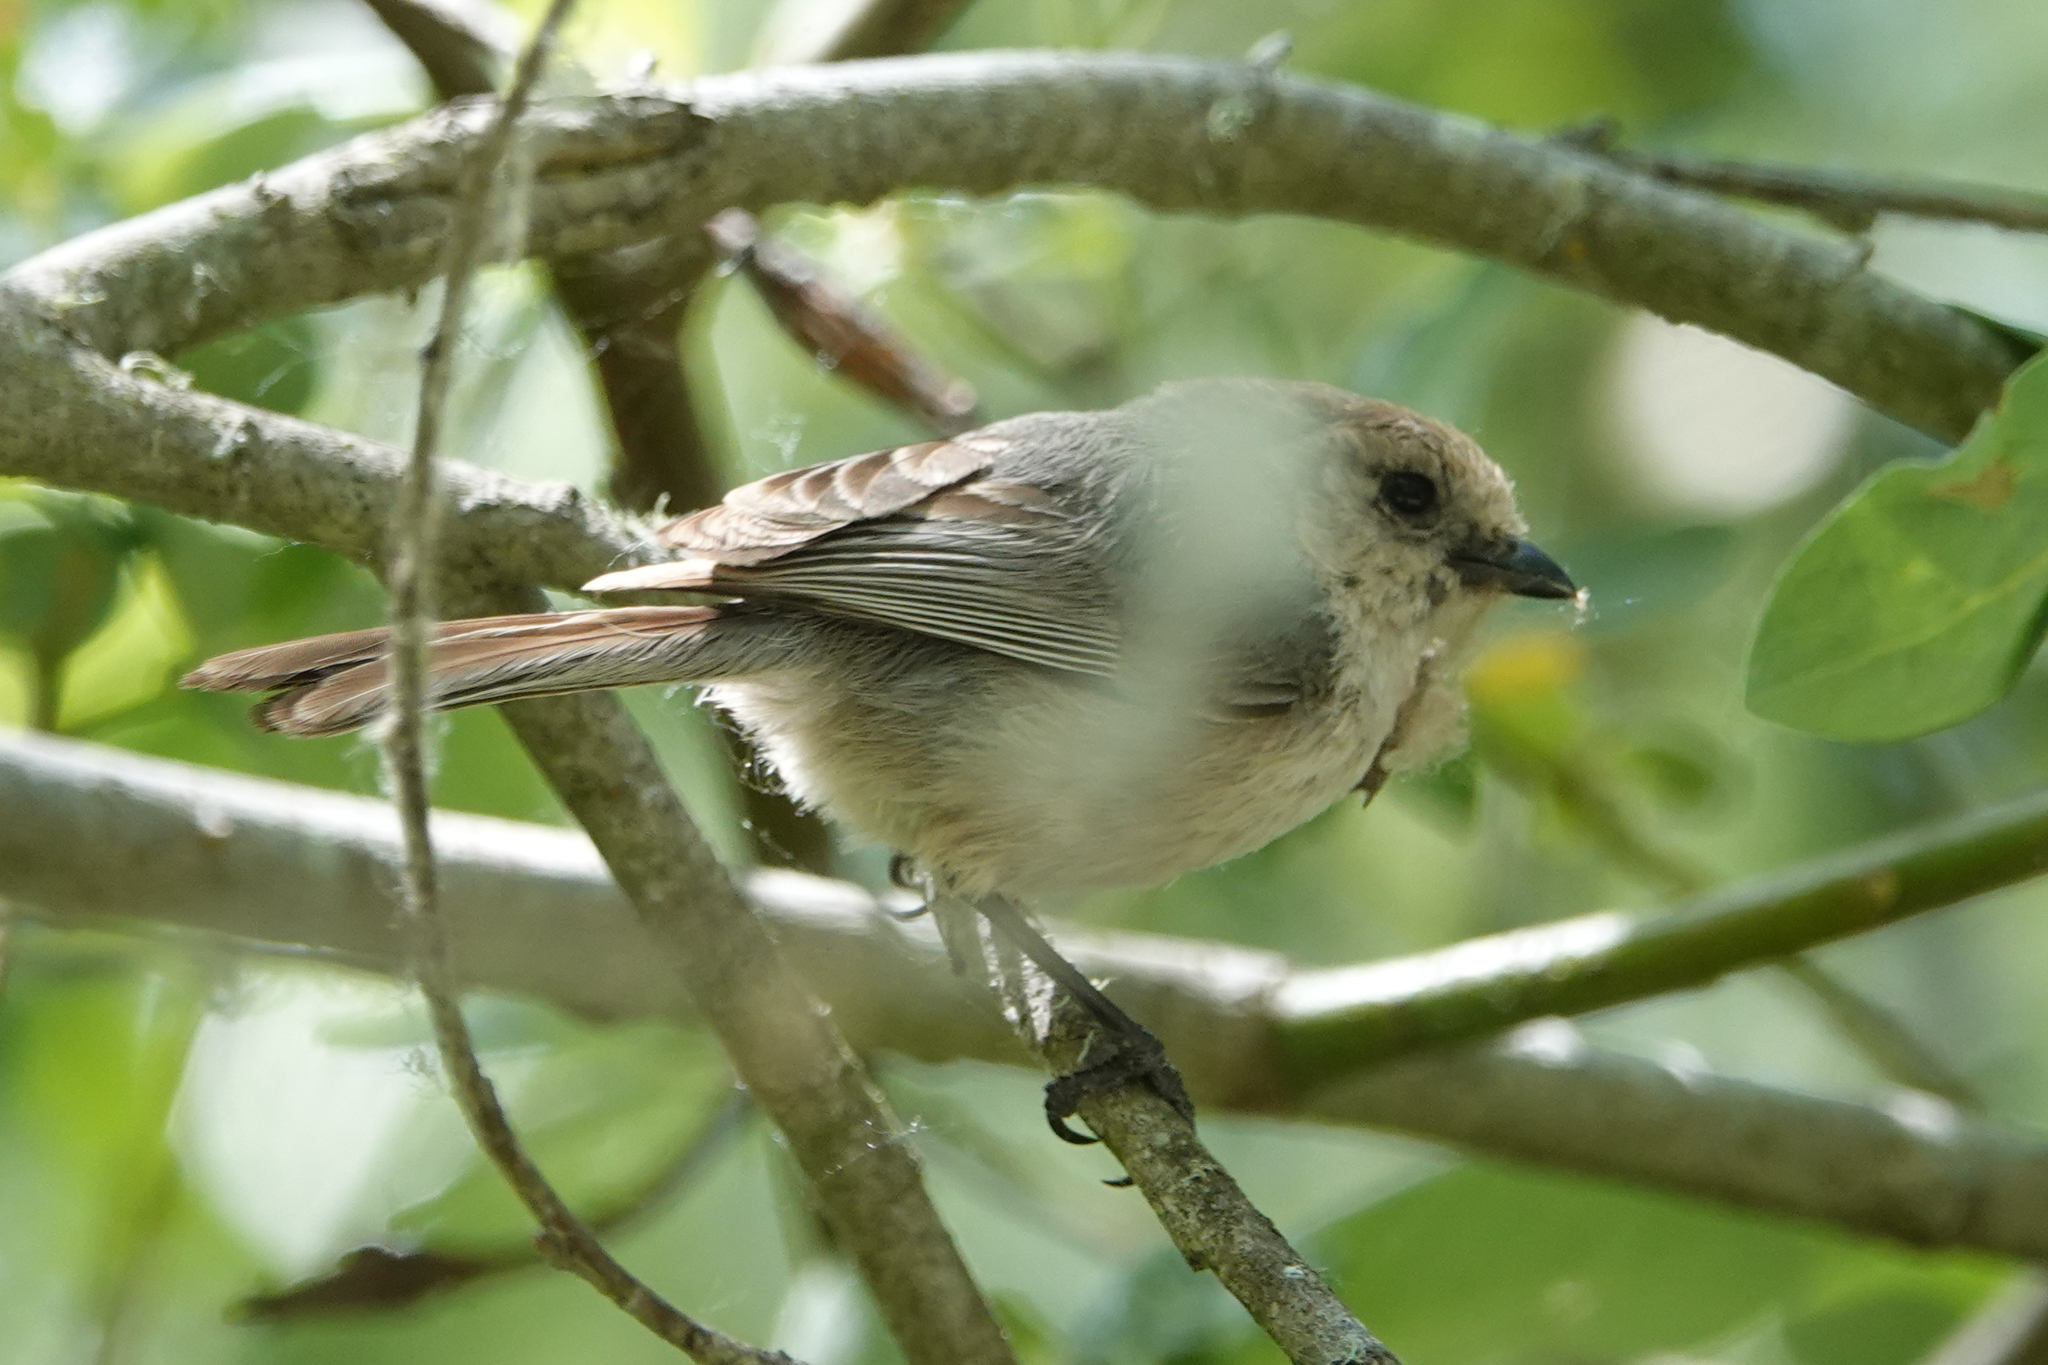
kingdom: Animalia
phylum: Chordata
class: Aves
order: Passeriformes
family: Aegithalidae
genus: Psaltriparus
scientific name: Psaltriparus minimus
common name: American bushtit
